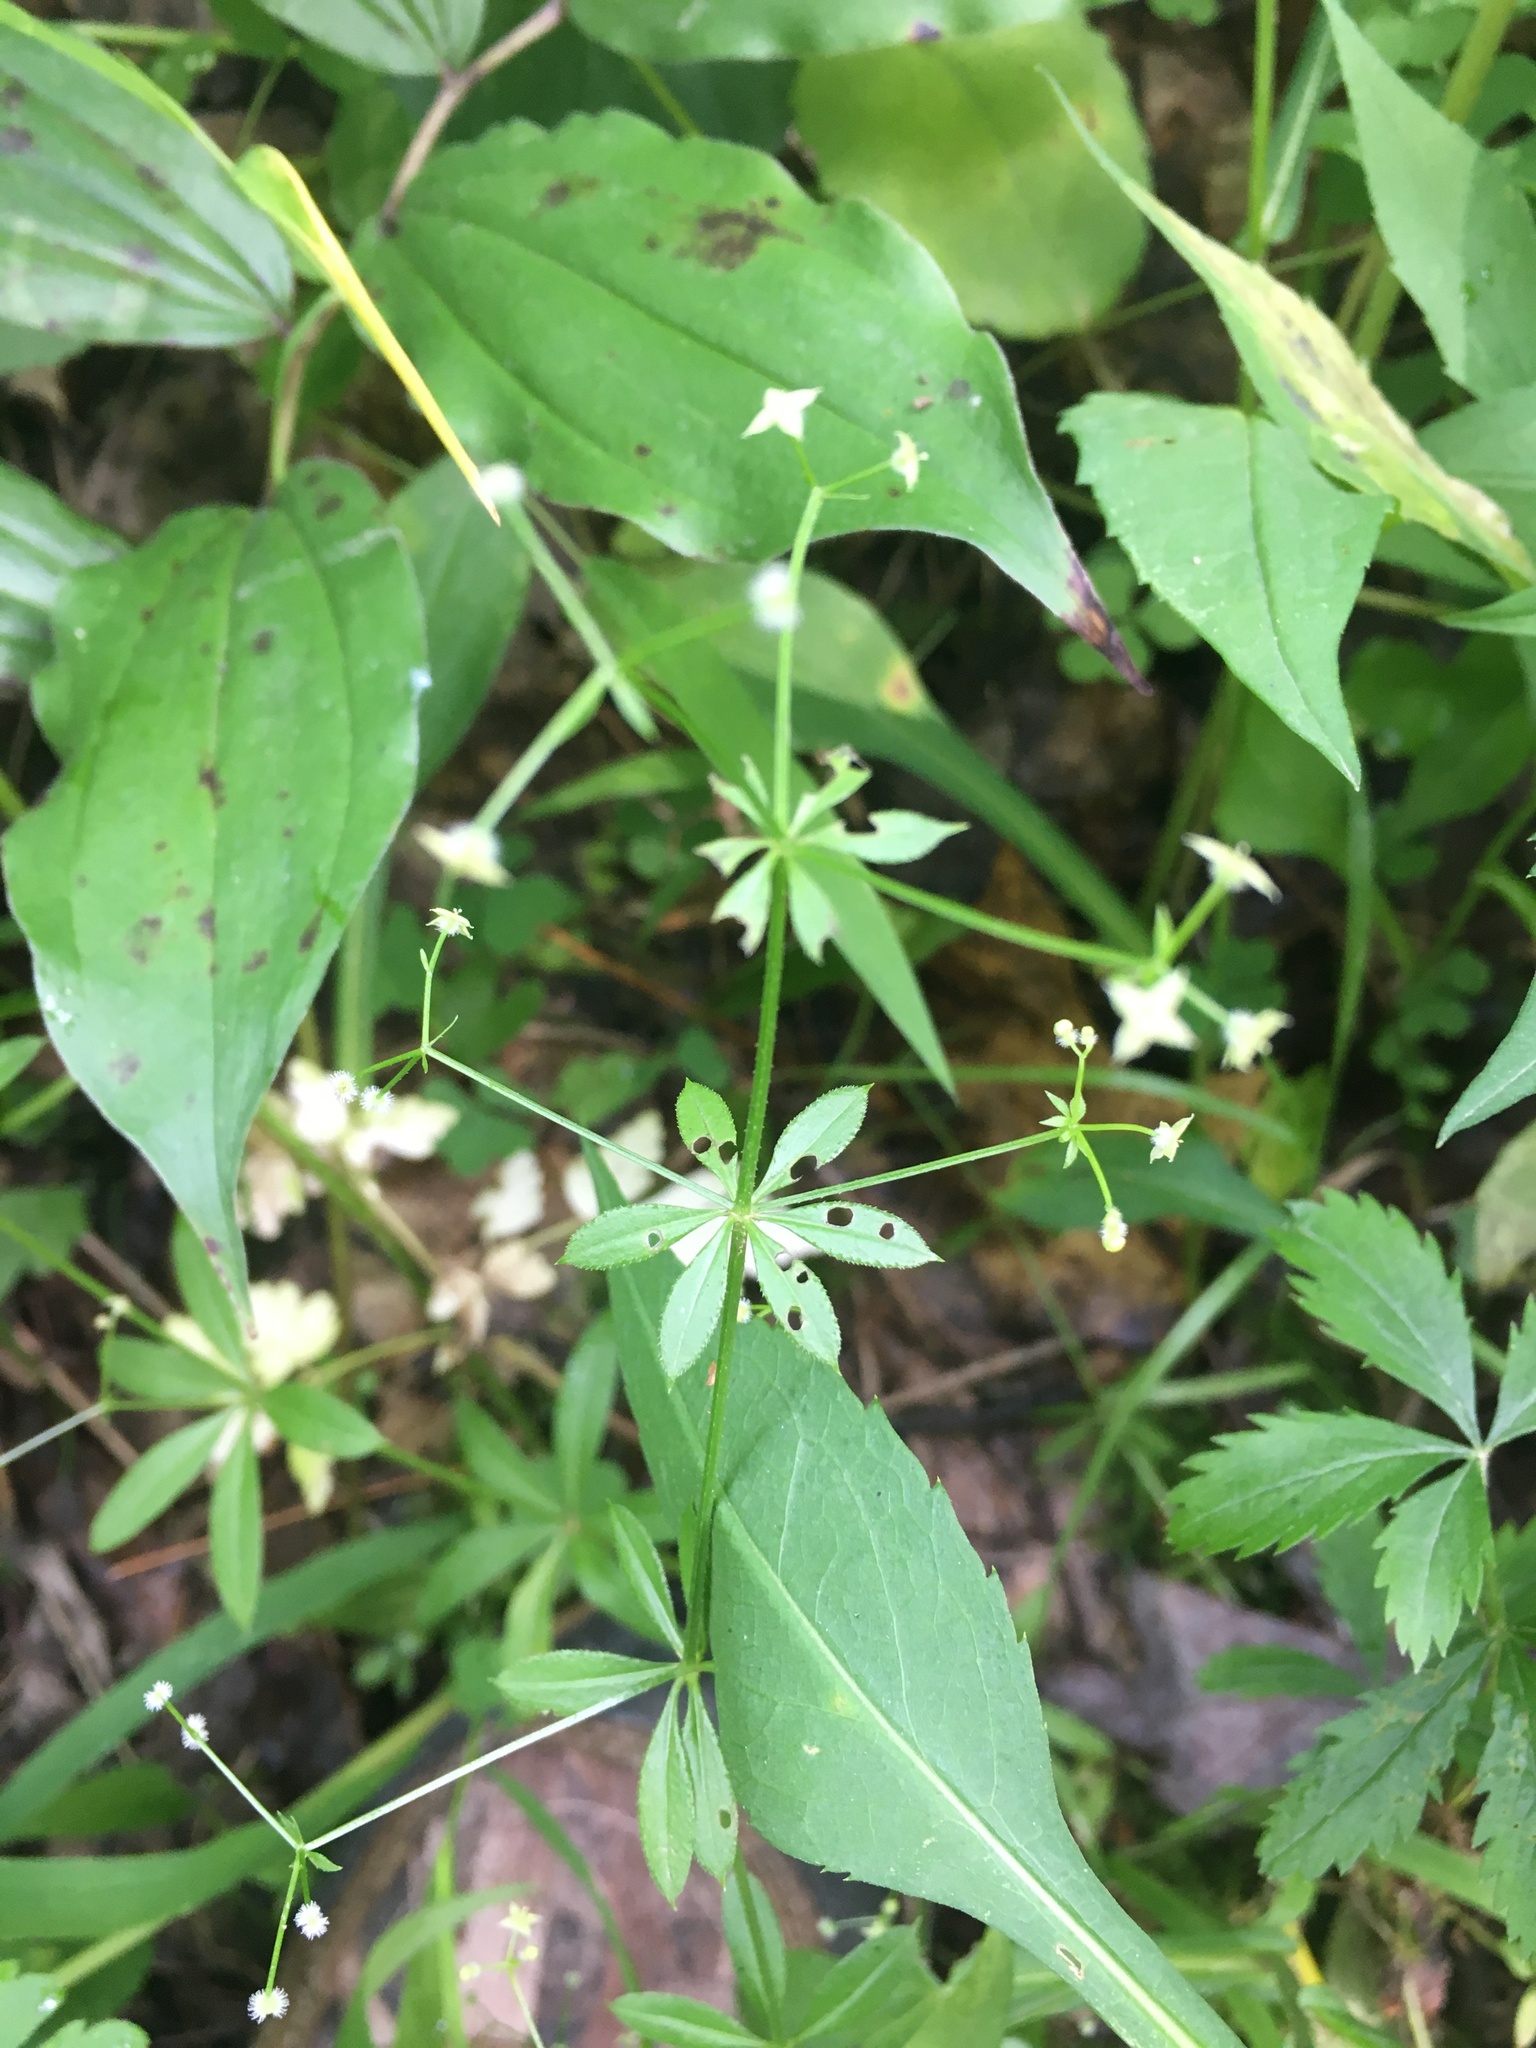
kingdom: Plantae
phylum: Tracheophyta
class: Magnoliopsida
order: Gentianales
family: Rubiaceae
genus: Galium
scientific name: Galium triflorum
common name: Fragrant bedstraw
